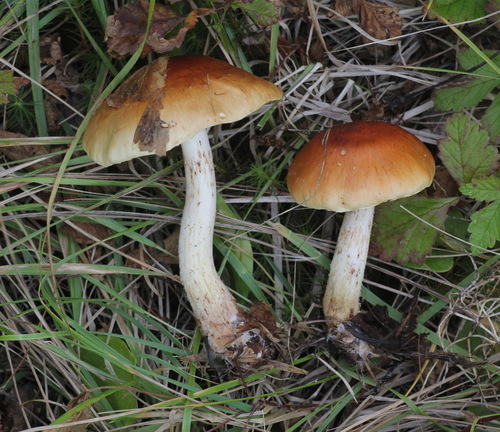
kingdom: Fungi
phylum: Basidiomycota
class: Agaricomycetes
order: Agaricales
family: Strophariaceae
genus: Hypholoma
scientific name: Hypholoma lateritium
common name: Brick caps
